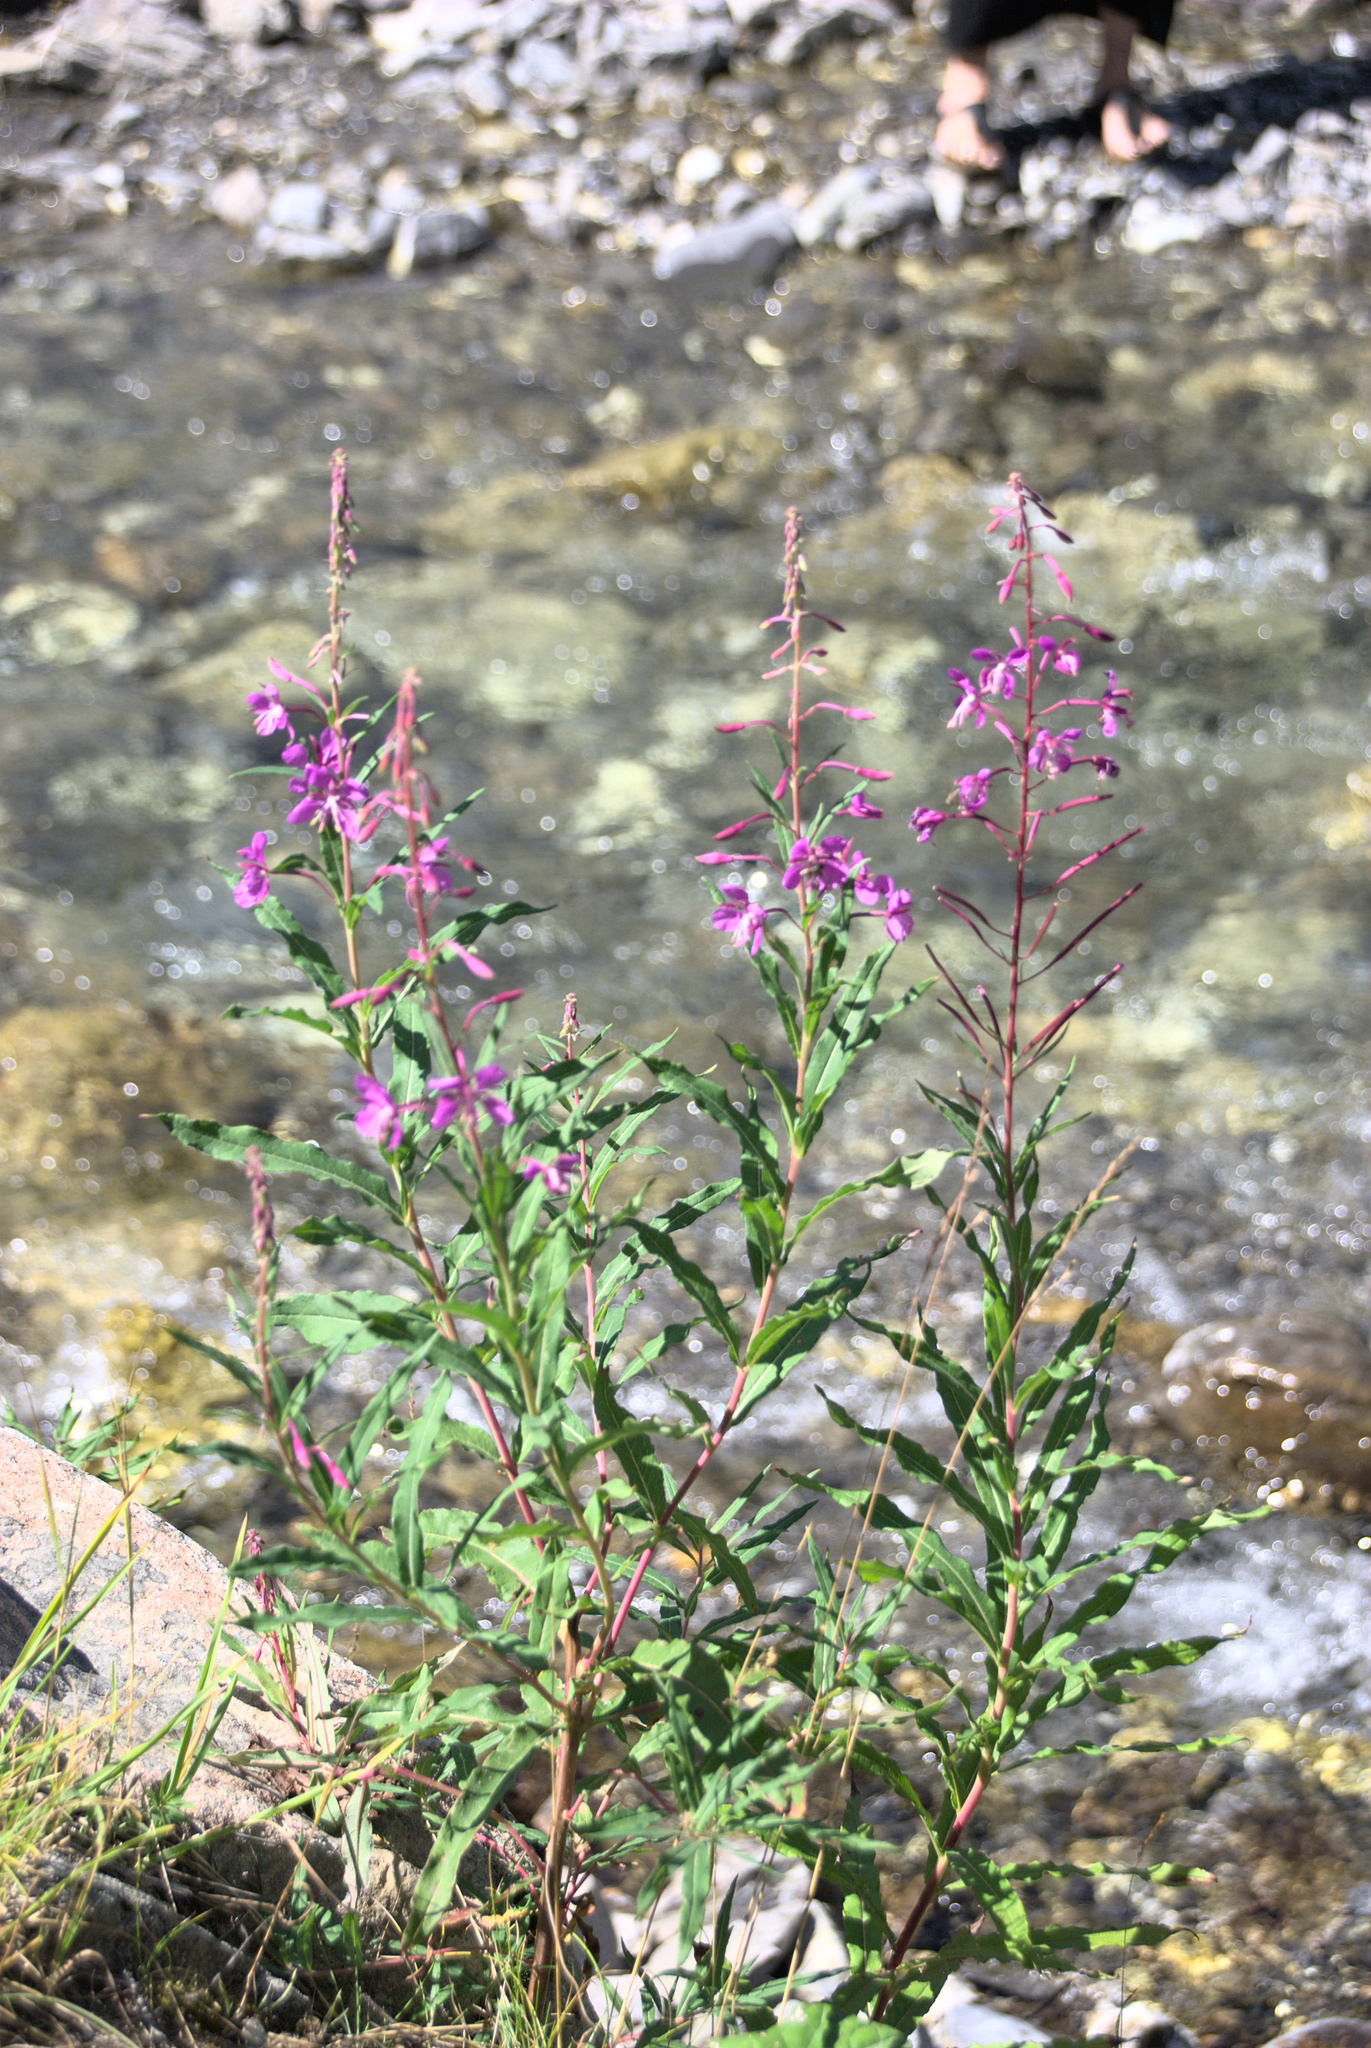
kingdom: Plantae
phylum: Tracheophyta
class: Magnoliopsida
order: Myrtales
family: Onagraceae
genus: Chamaenerion
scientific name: Chamaenerion angustifolium
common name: Fireweed
